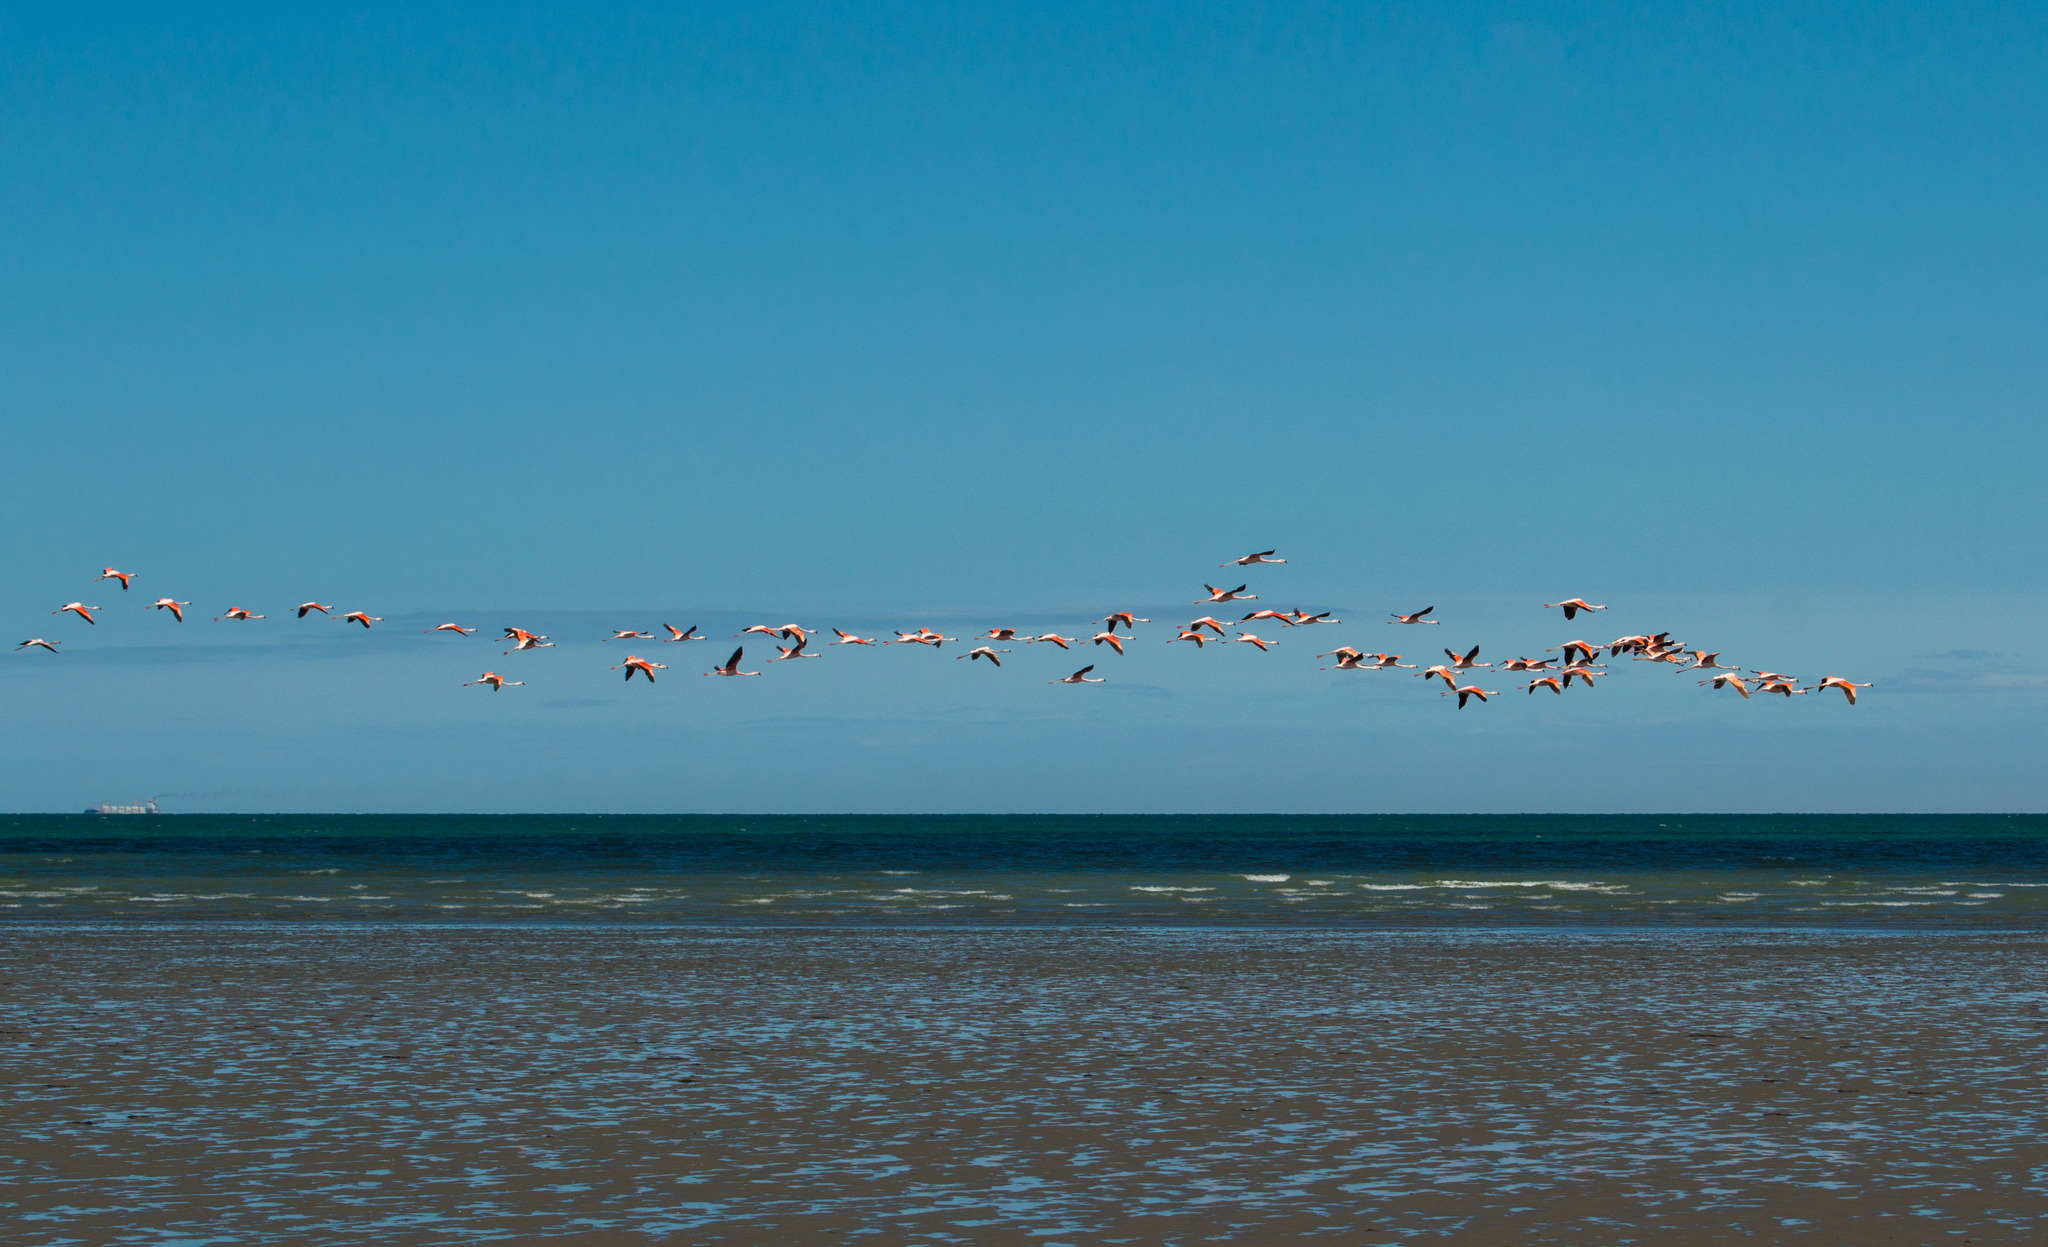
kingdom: Animalia
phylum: Chordata
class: Aves
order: Phoenicopteriformes
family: Phoenicopteridae
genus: Phoenicopterus
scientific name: Phoenicopterus chilensis
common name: Chilean flamingo
